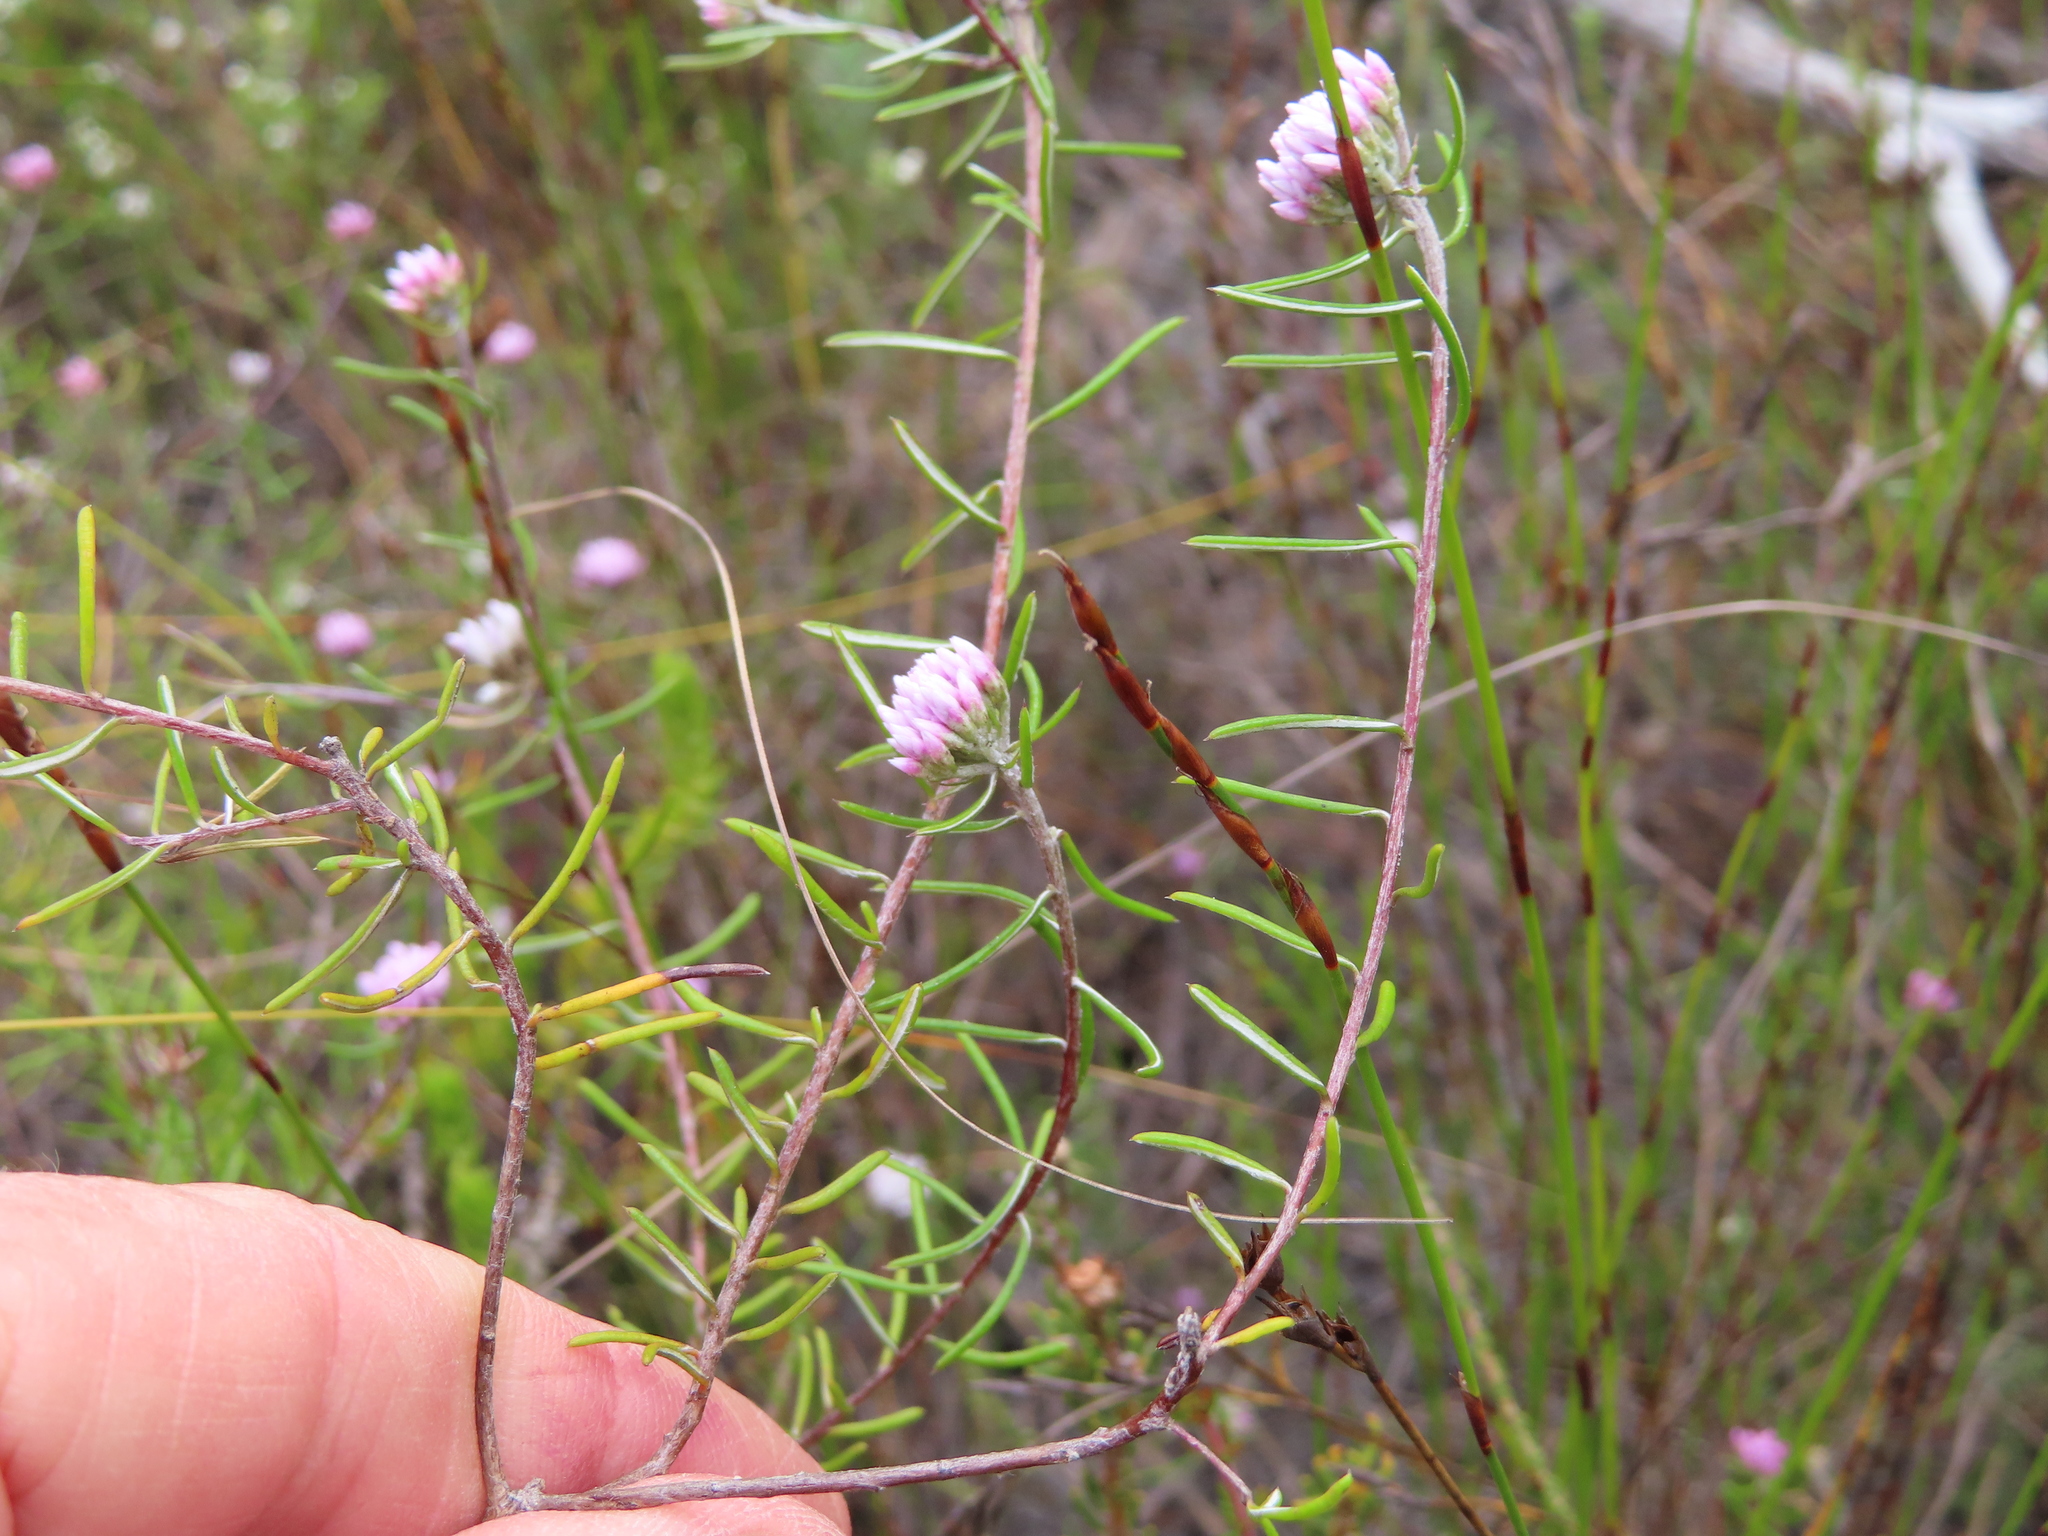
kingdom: Plantae
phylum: Tracheophyta
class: Magnoliopsida
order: Asterales
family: Asteraceae
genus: Metalasia
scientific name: Metalasia tenuifolia
